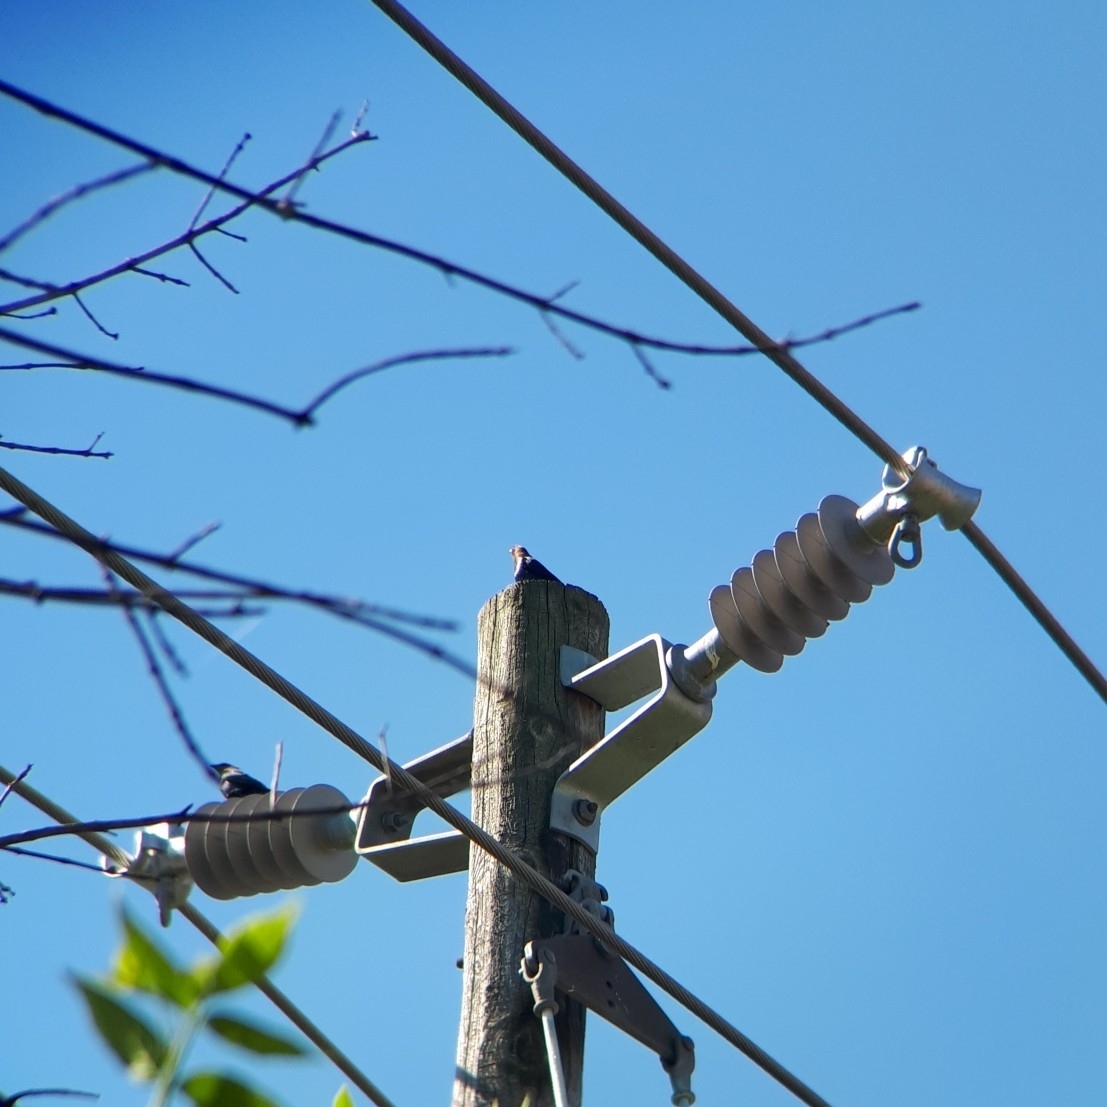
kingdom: Animalia
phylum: Chordata
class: Aves
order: Passeriformes
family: Icteridae
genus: Molothrus
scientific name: Molothrus ater
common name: Brown-headed cowbird
